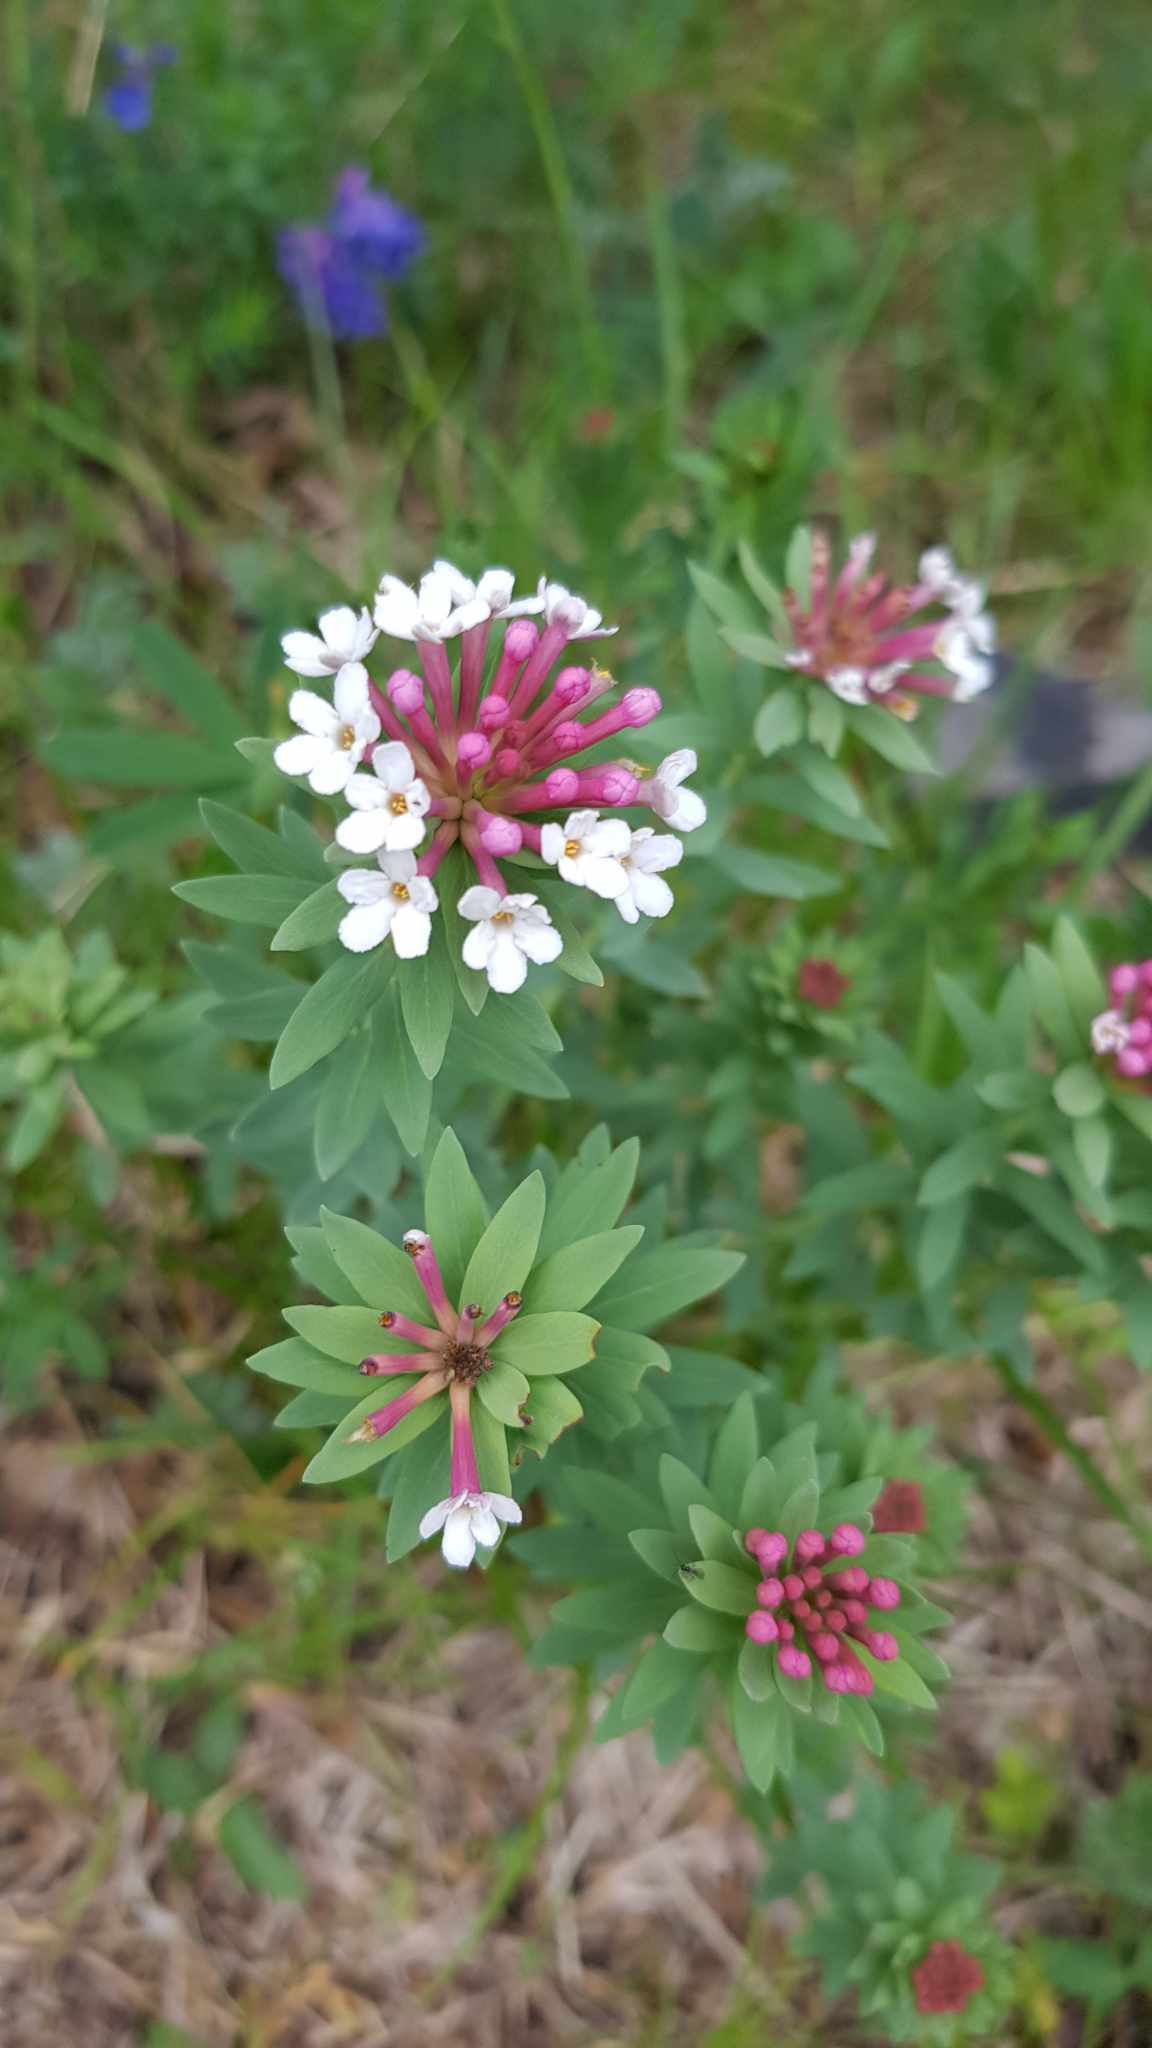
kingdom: Plantae
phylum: Tracheophyta
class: Magnoliopsida
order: Malvales
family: Thymelaeaceae
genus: Stellera
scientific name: Stellera chamaejasme
